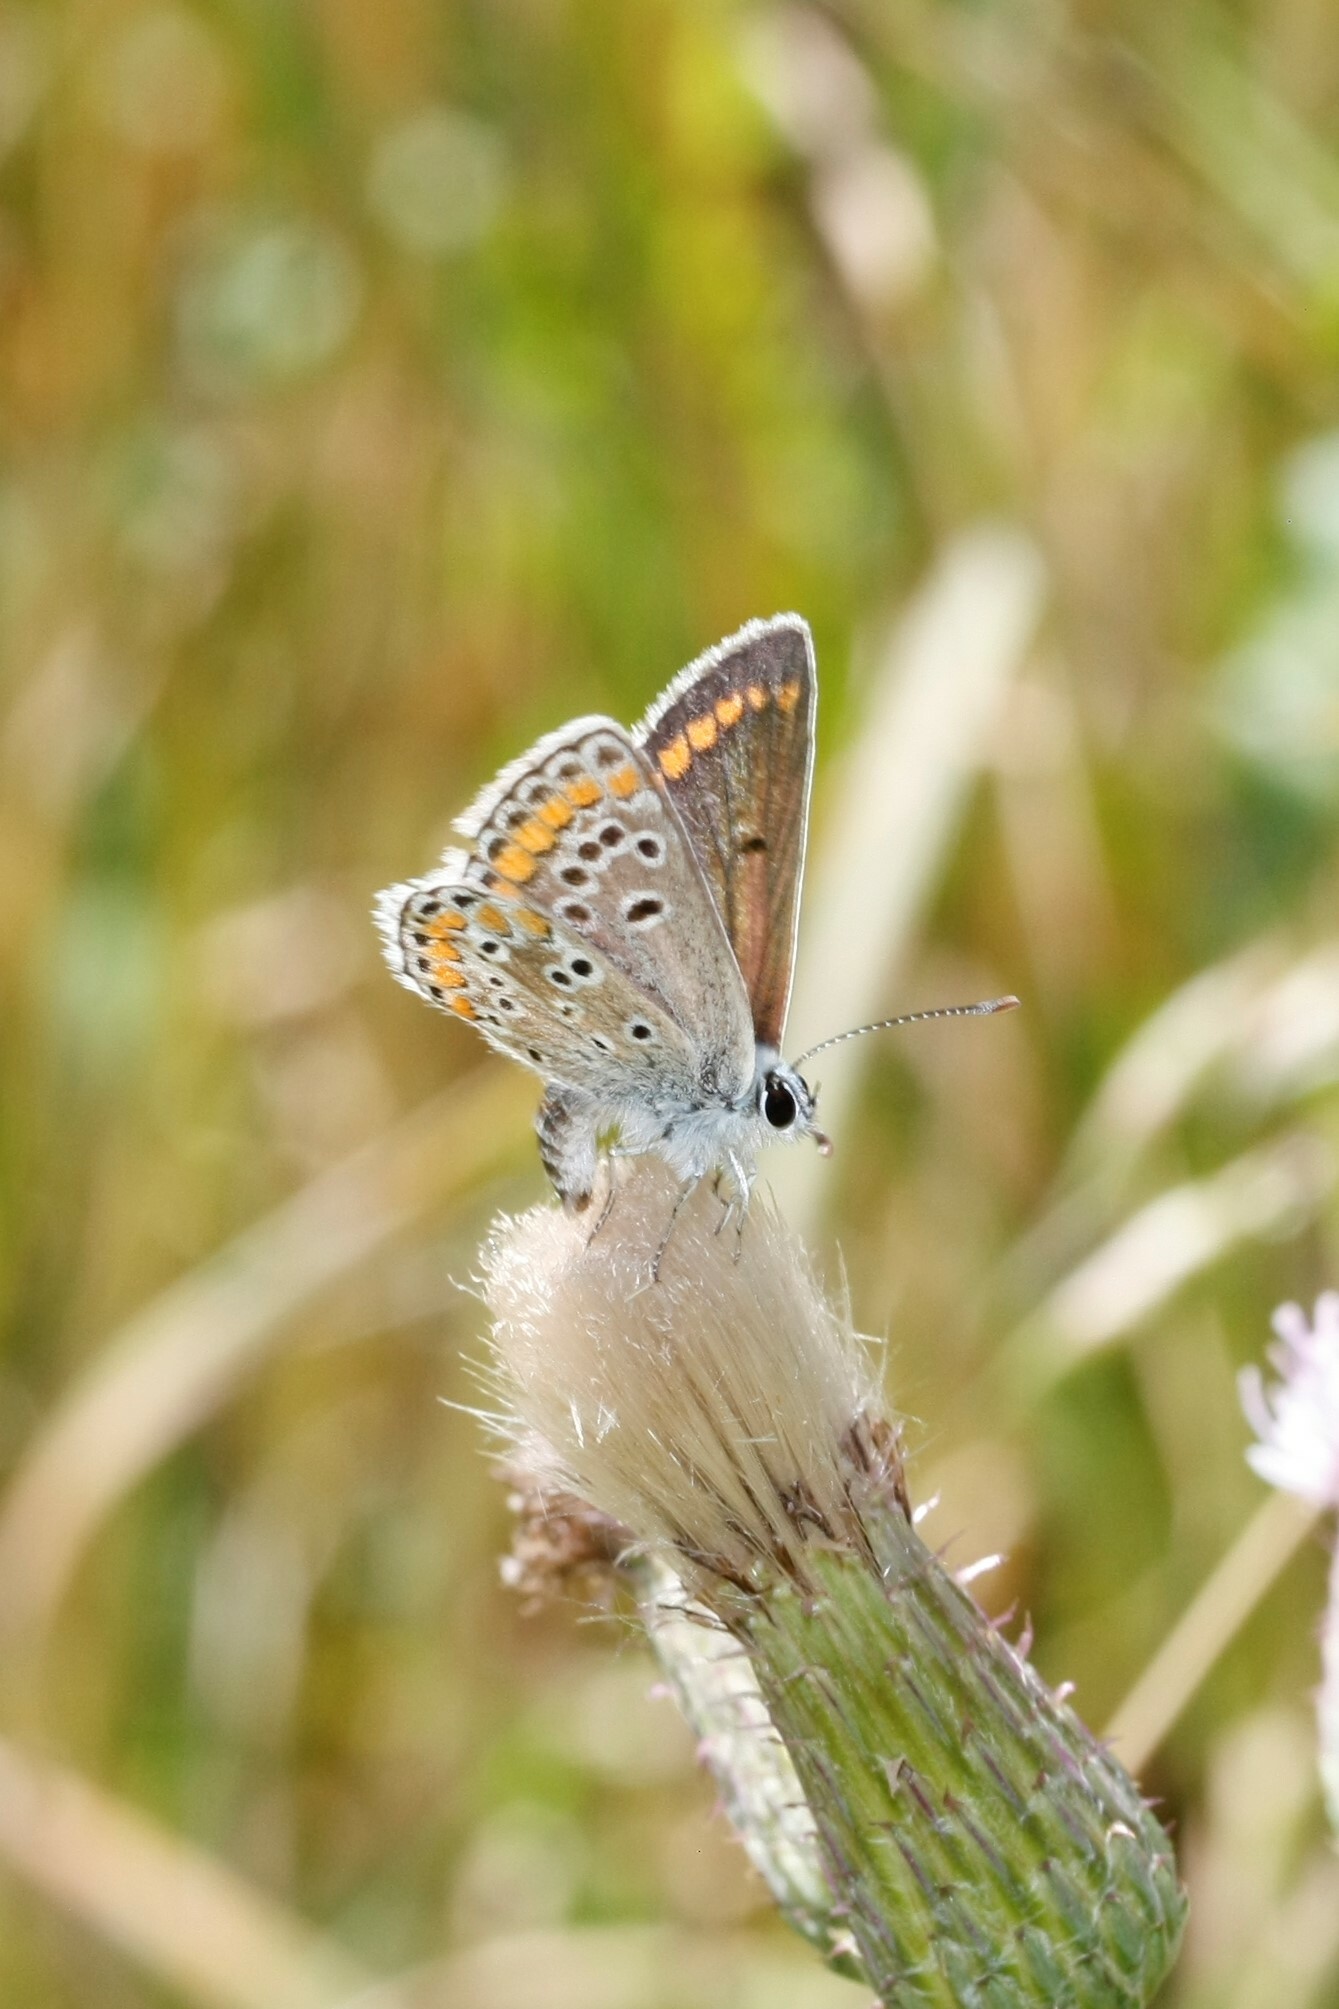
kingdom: Animalia
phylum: Arthropoda
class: Insecta
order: Lepidoptera
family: Lycaenidae
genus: Aricia
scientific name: Aricia agestis
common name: Brown argus
